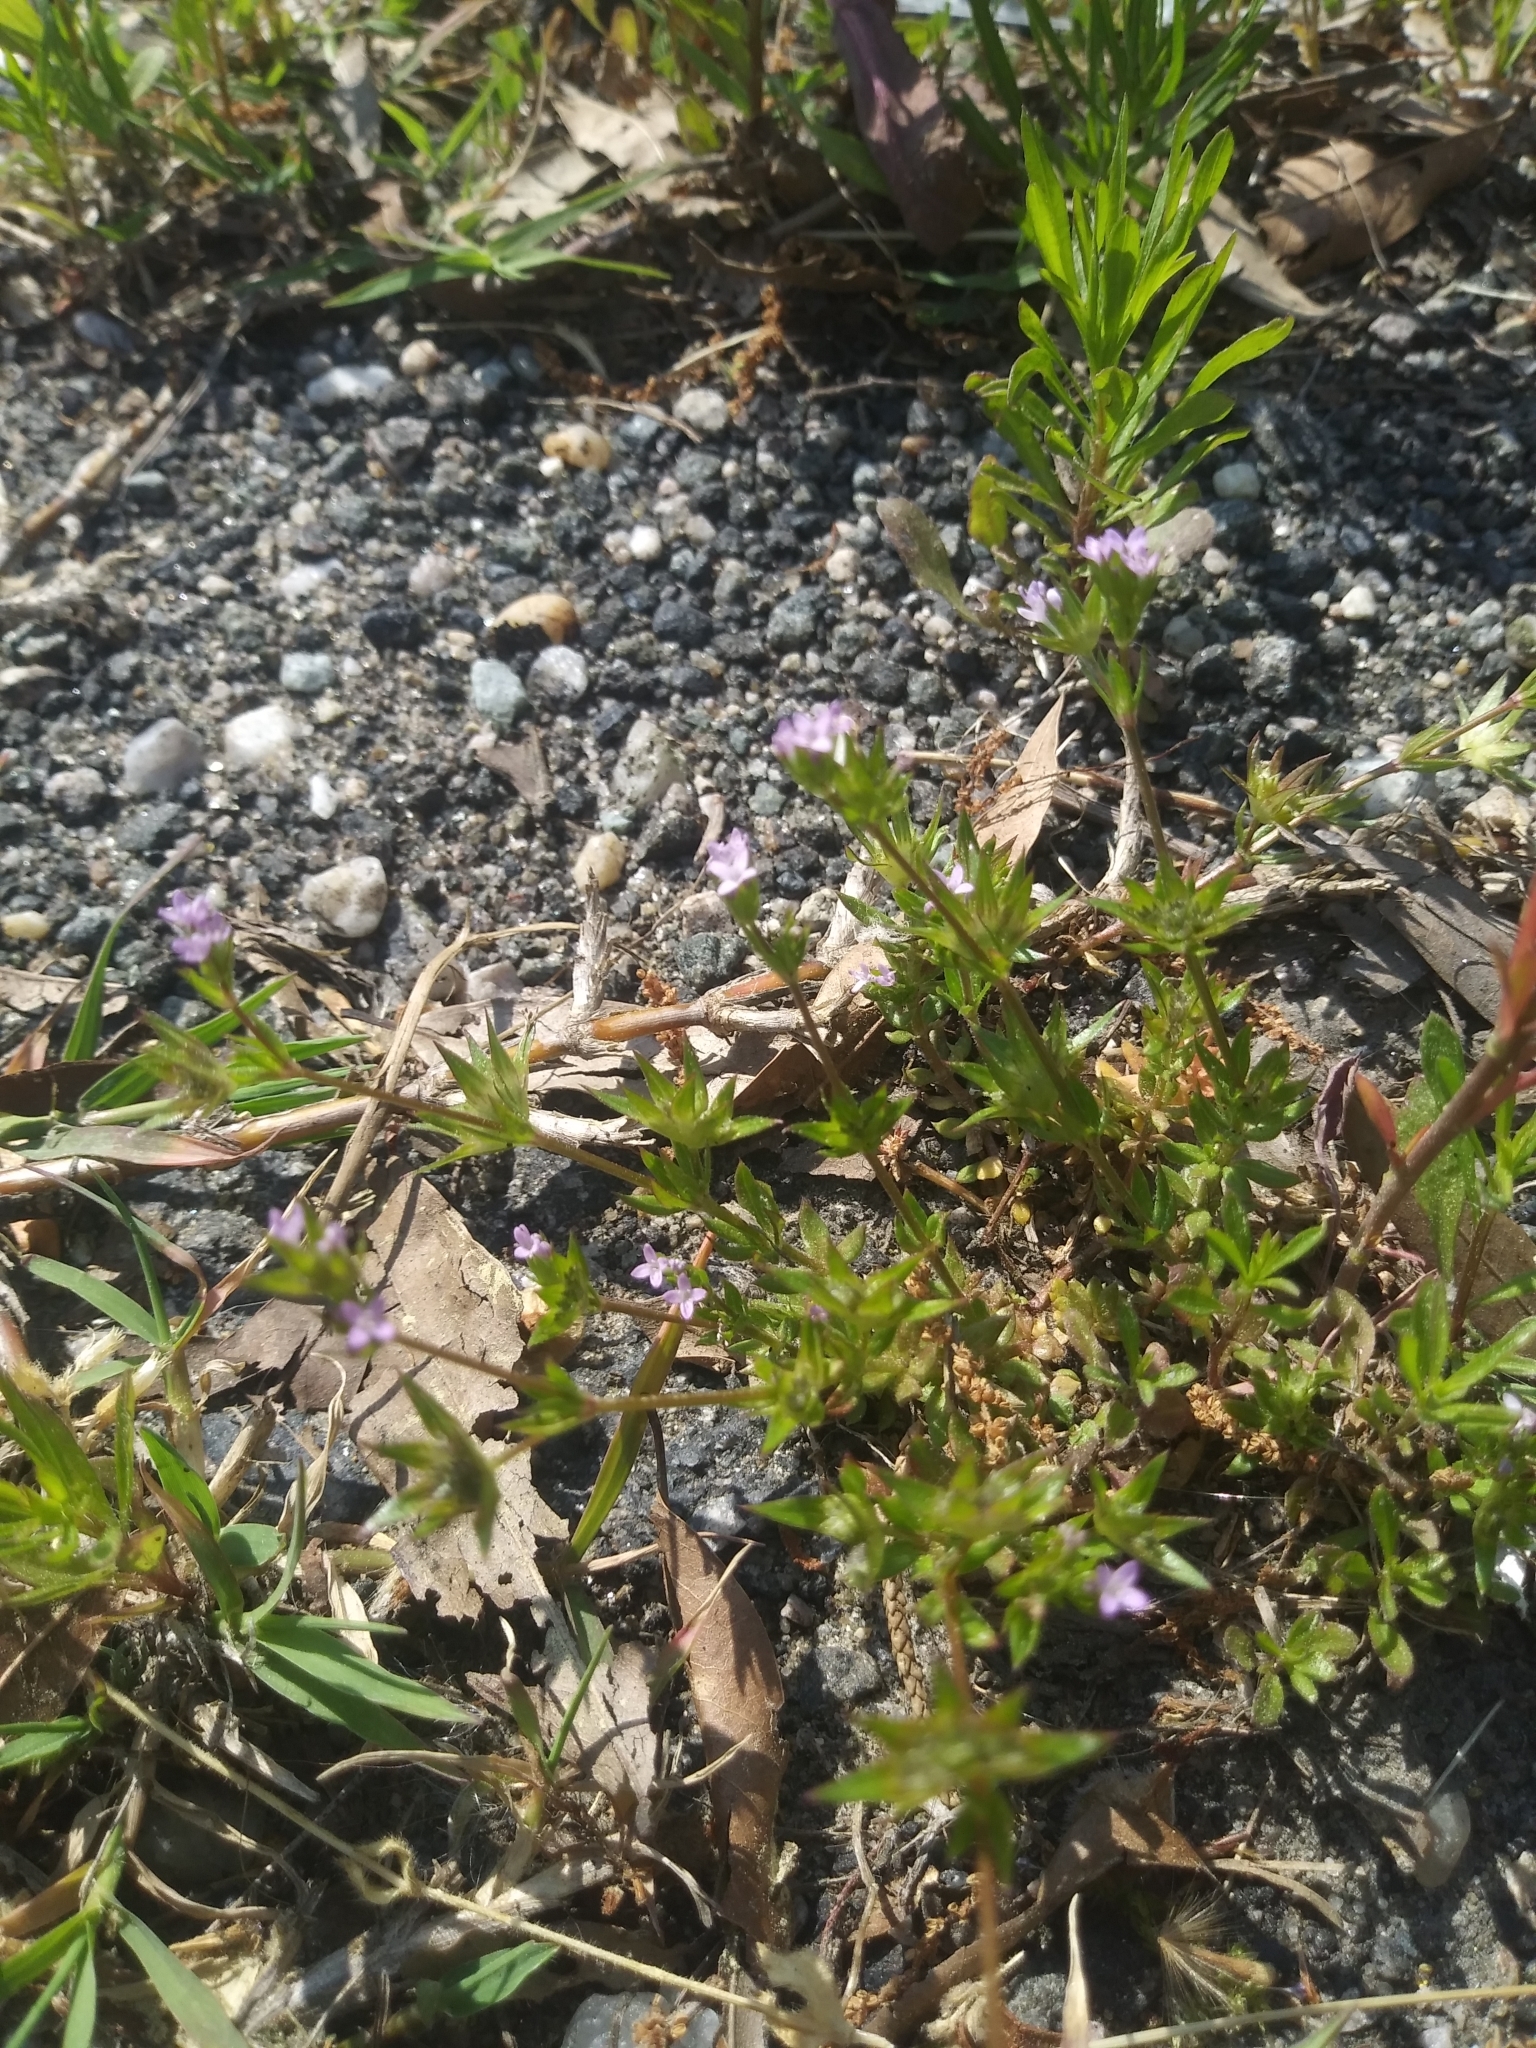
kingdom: Plantae
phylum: Tracheophyta
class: Magnoliopsida
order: Gentianales
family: Rubiaceae
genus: Sherardia
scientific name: Sherardia arvensis
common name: Field madder
